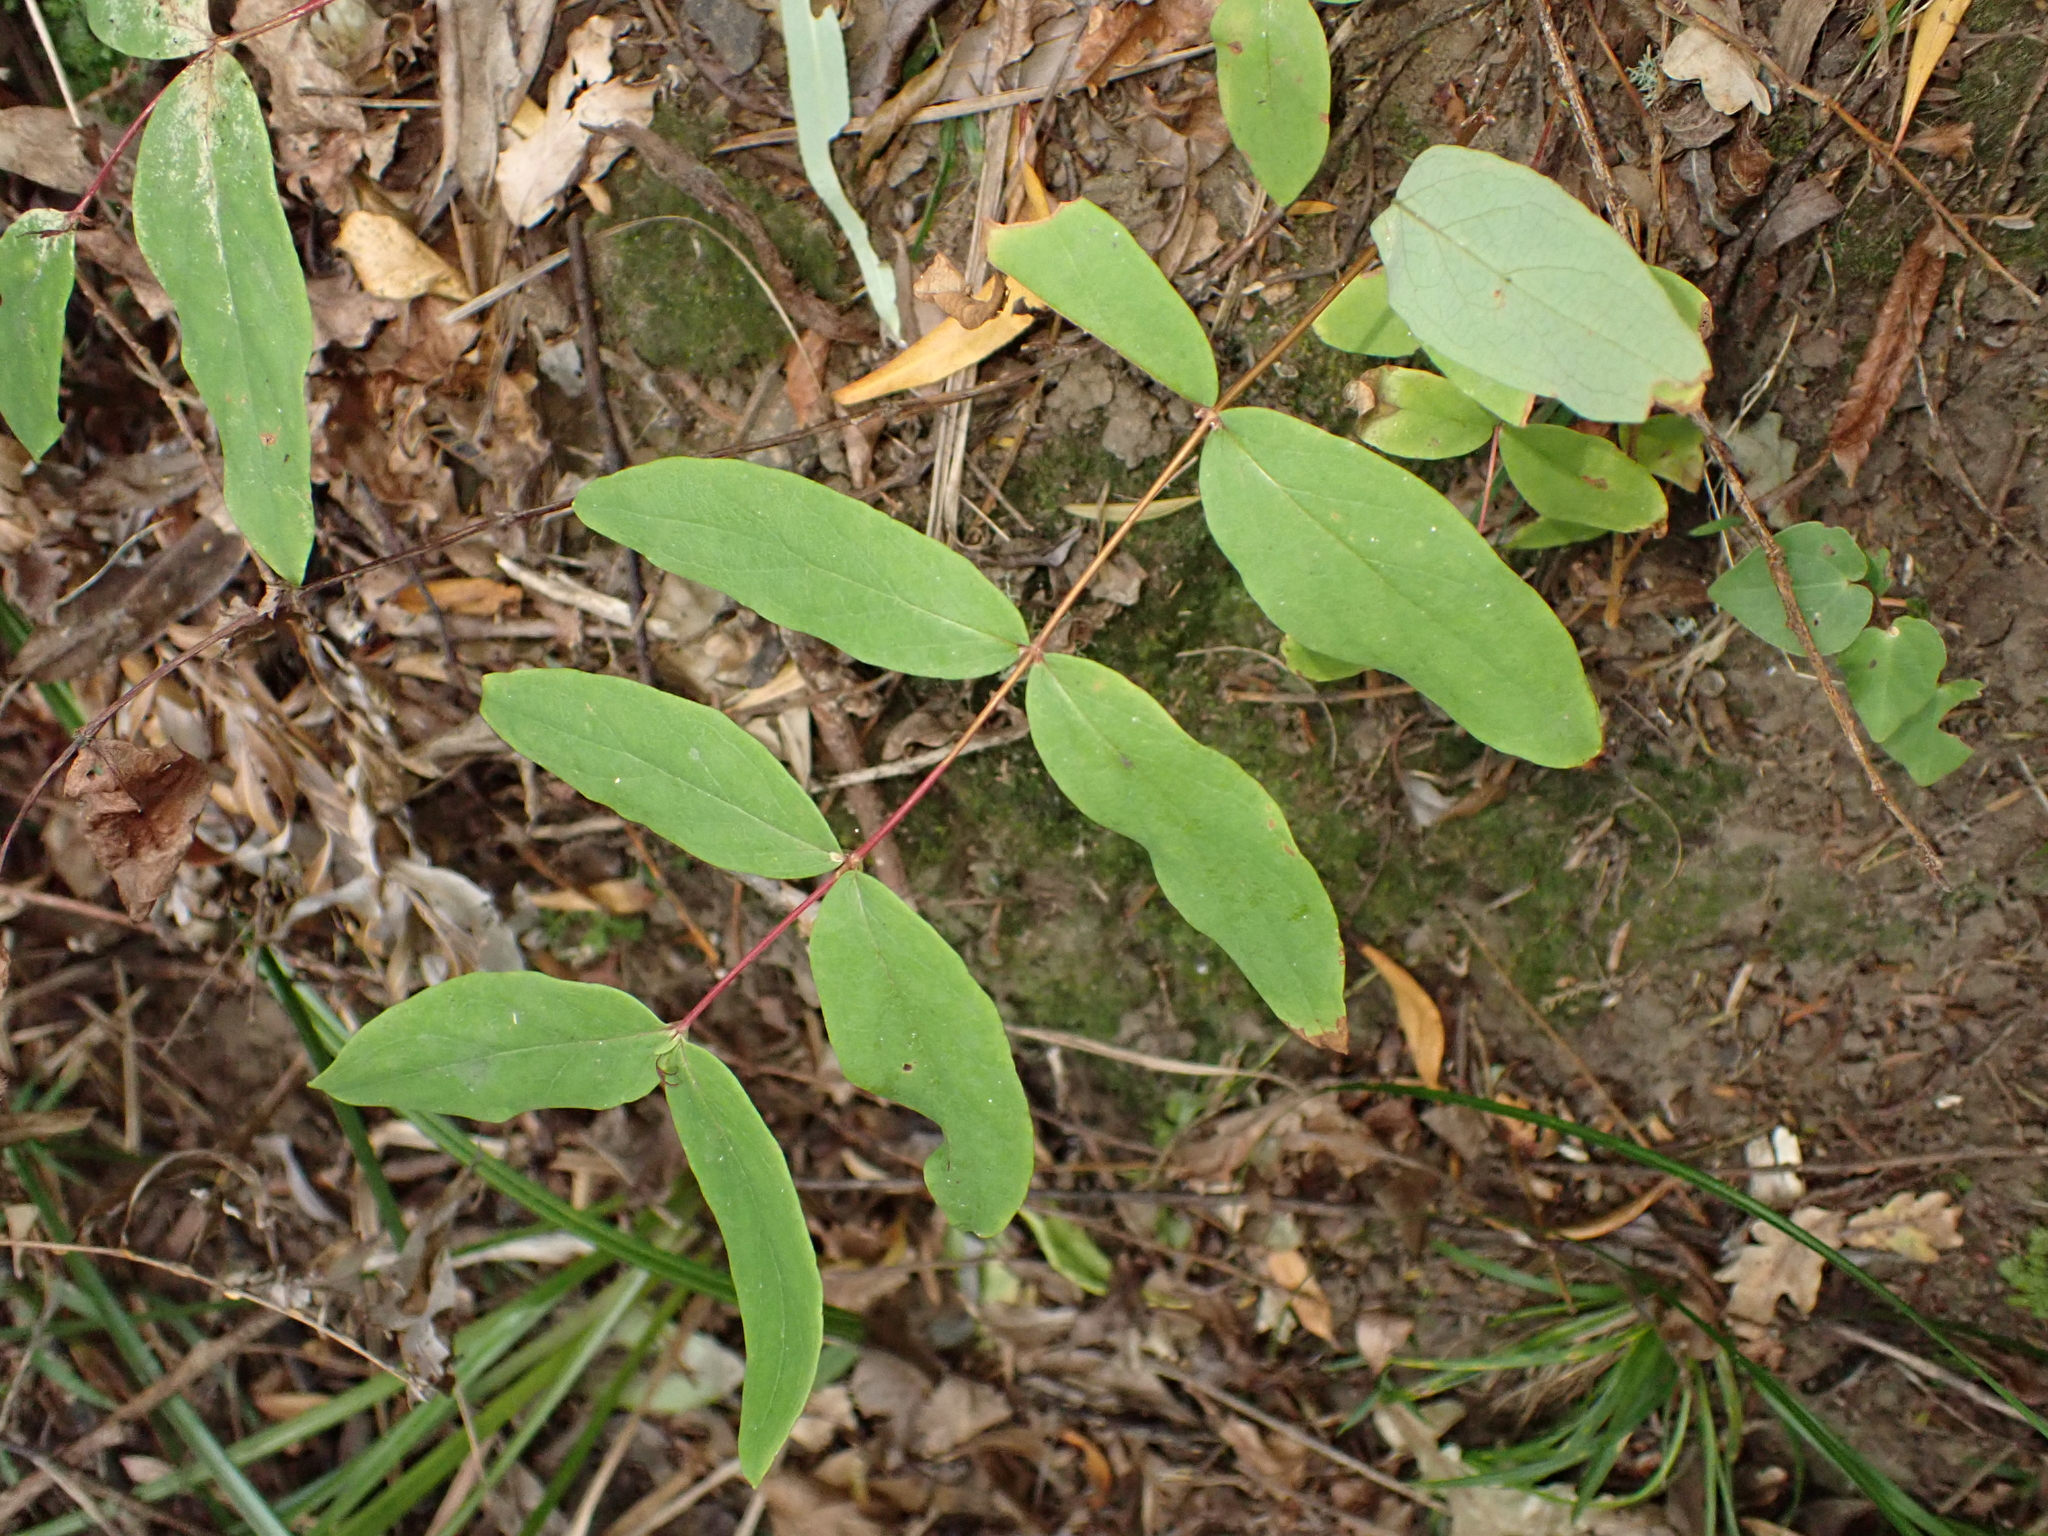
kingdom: Plantae
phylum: Tracheophyta
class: Magnoliopsida
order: Malpighiales
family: Hypericaceae
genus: Hypericum
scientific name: Hypericum androsaemum
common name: Sweet-amber
